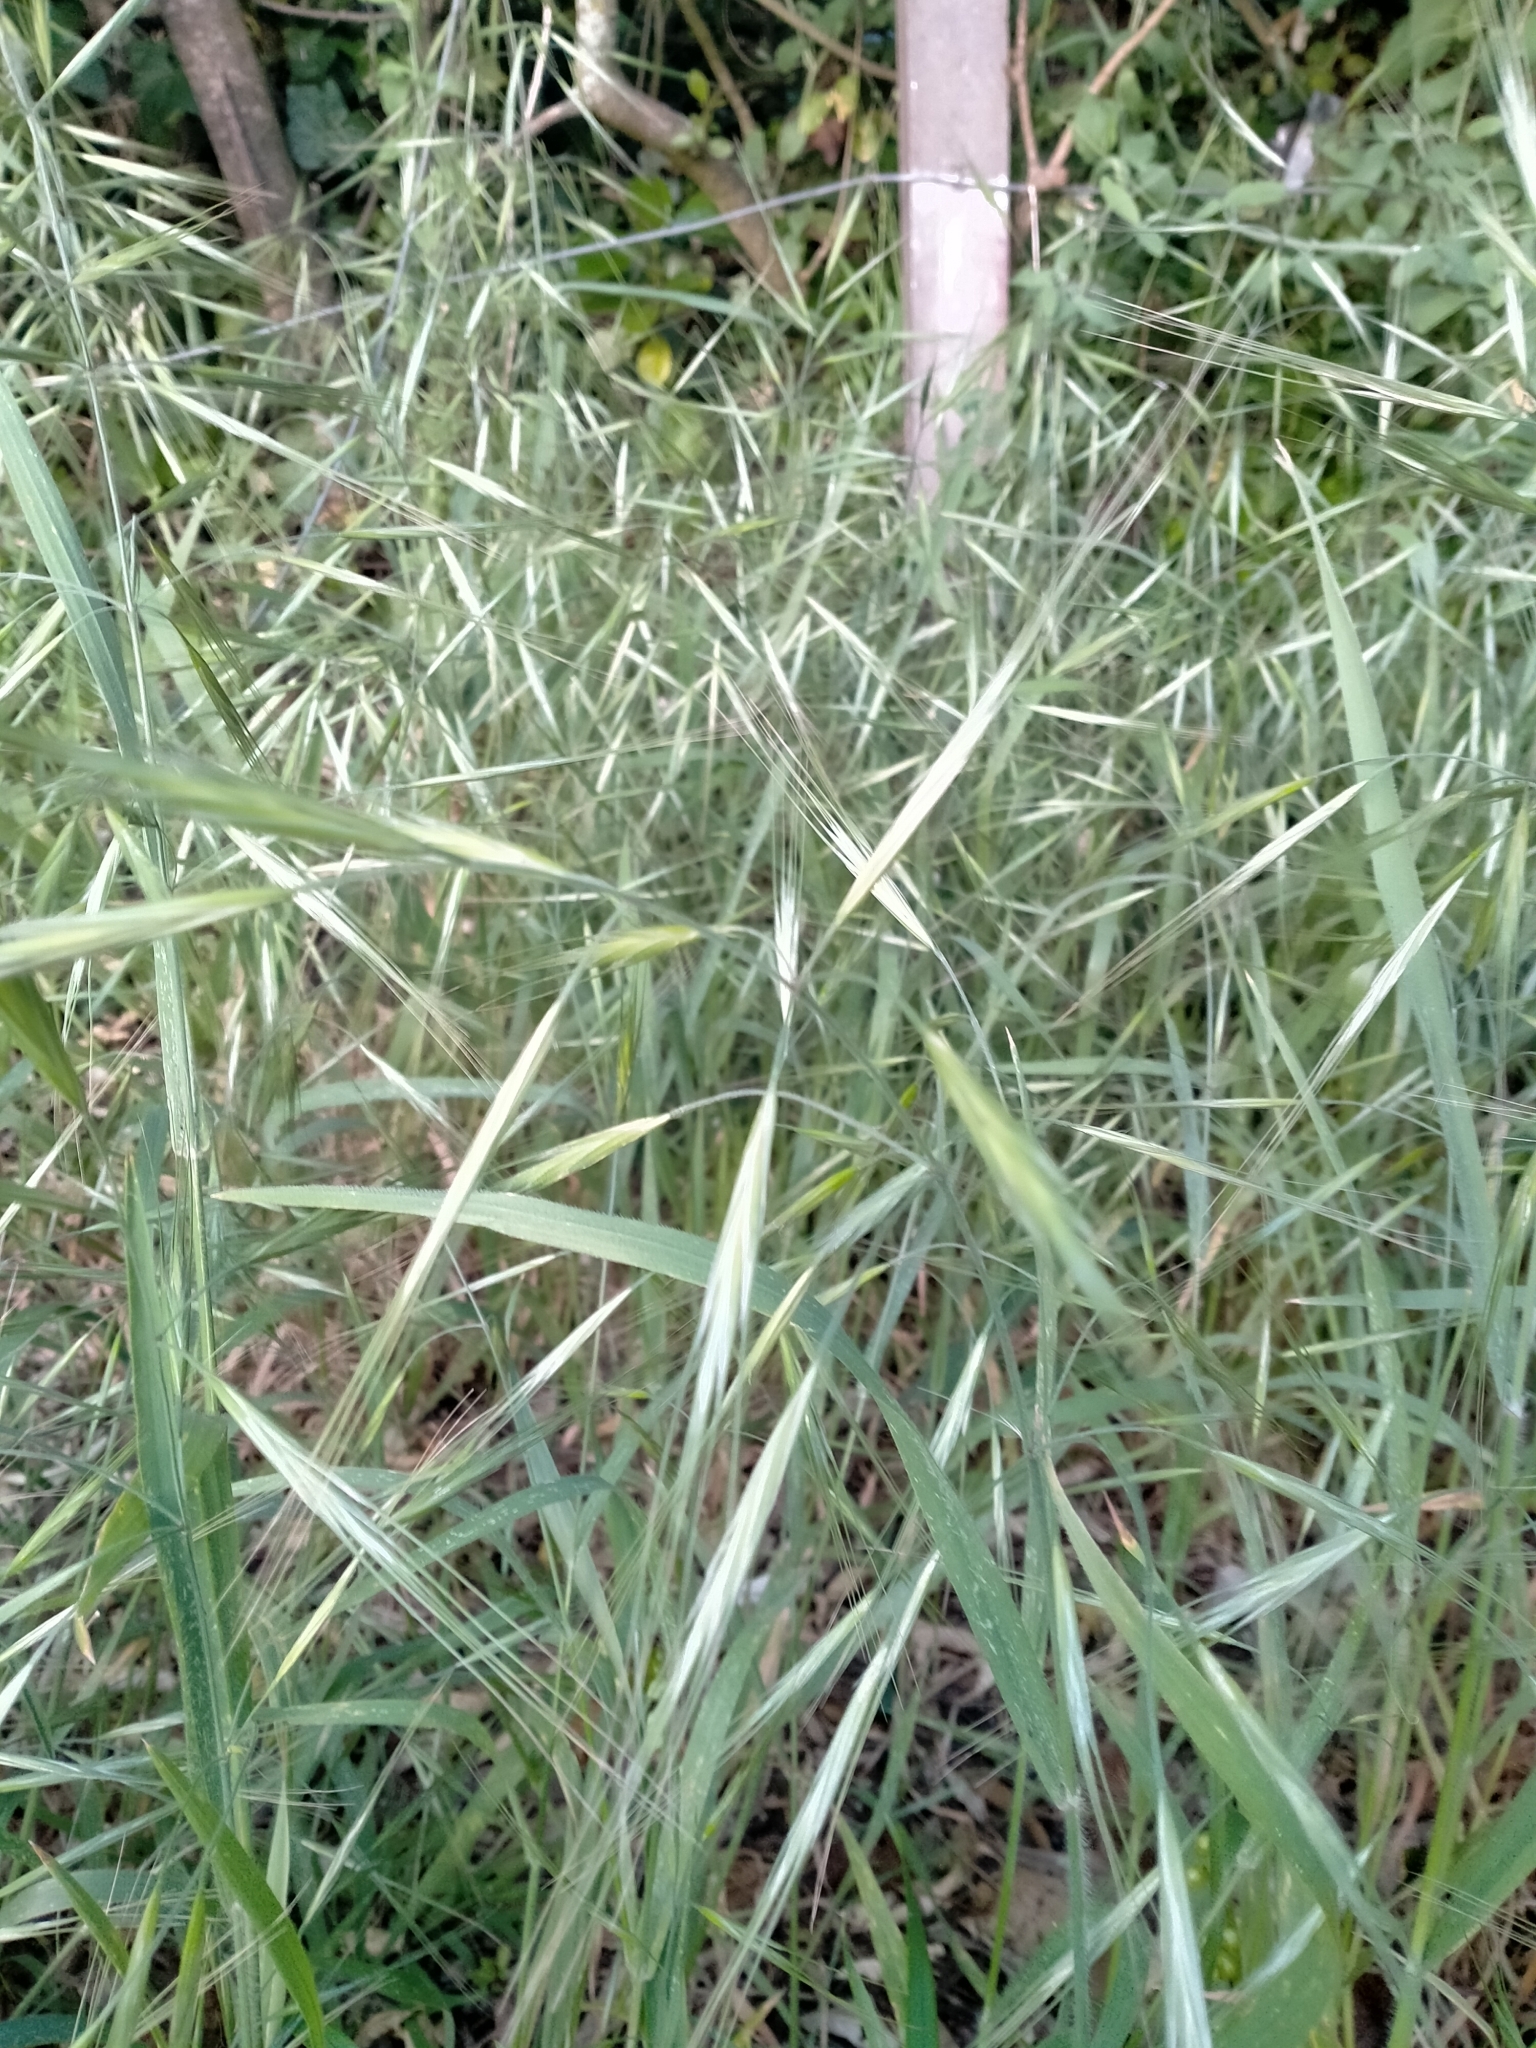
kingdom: Plantae
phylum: Tracheophyta
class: Liliopsida
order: Poales
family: Poaceae
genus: Bromus
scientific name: Bromus diandrus
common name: Ripgut brome
